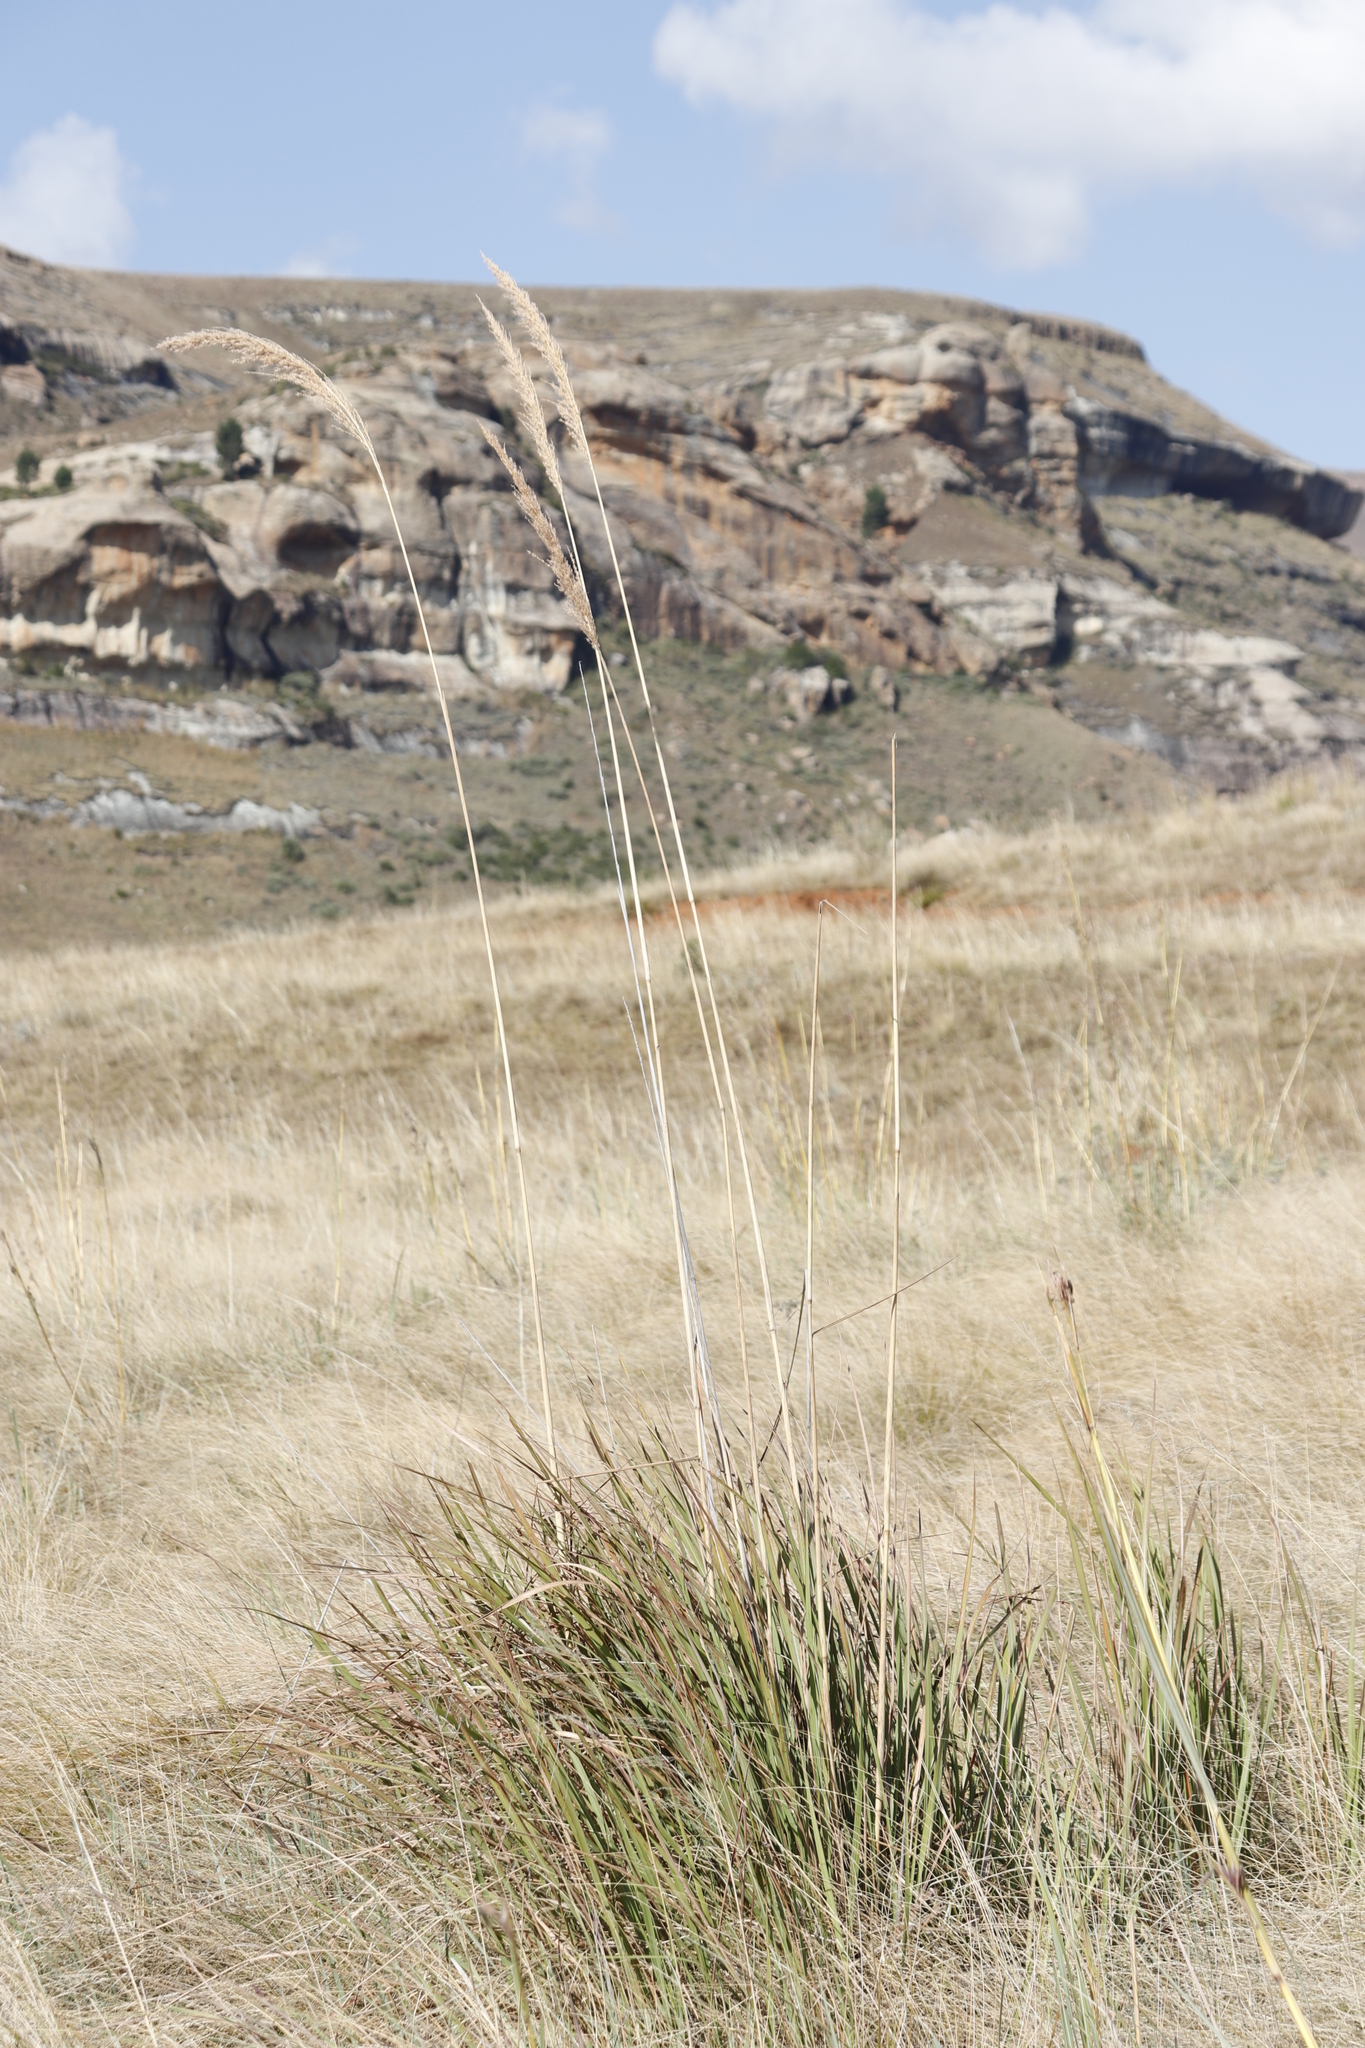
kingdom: Plantae
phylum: Tracheophyta
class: Liliopsida
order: Poales
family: Poaceae
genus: Miscanthus
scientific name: Miscanthus ecklonii
